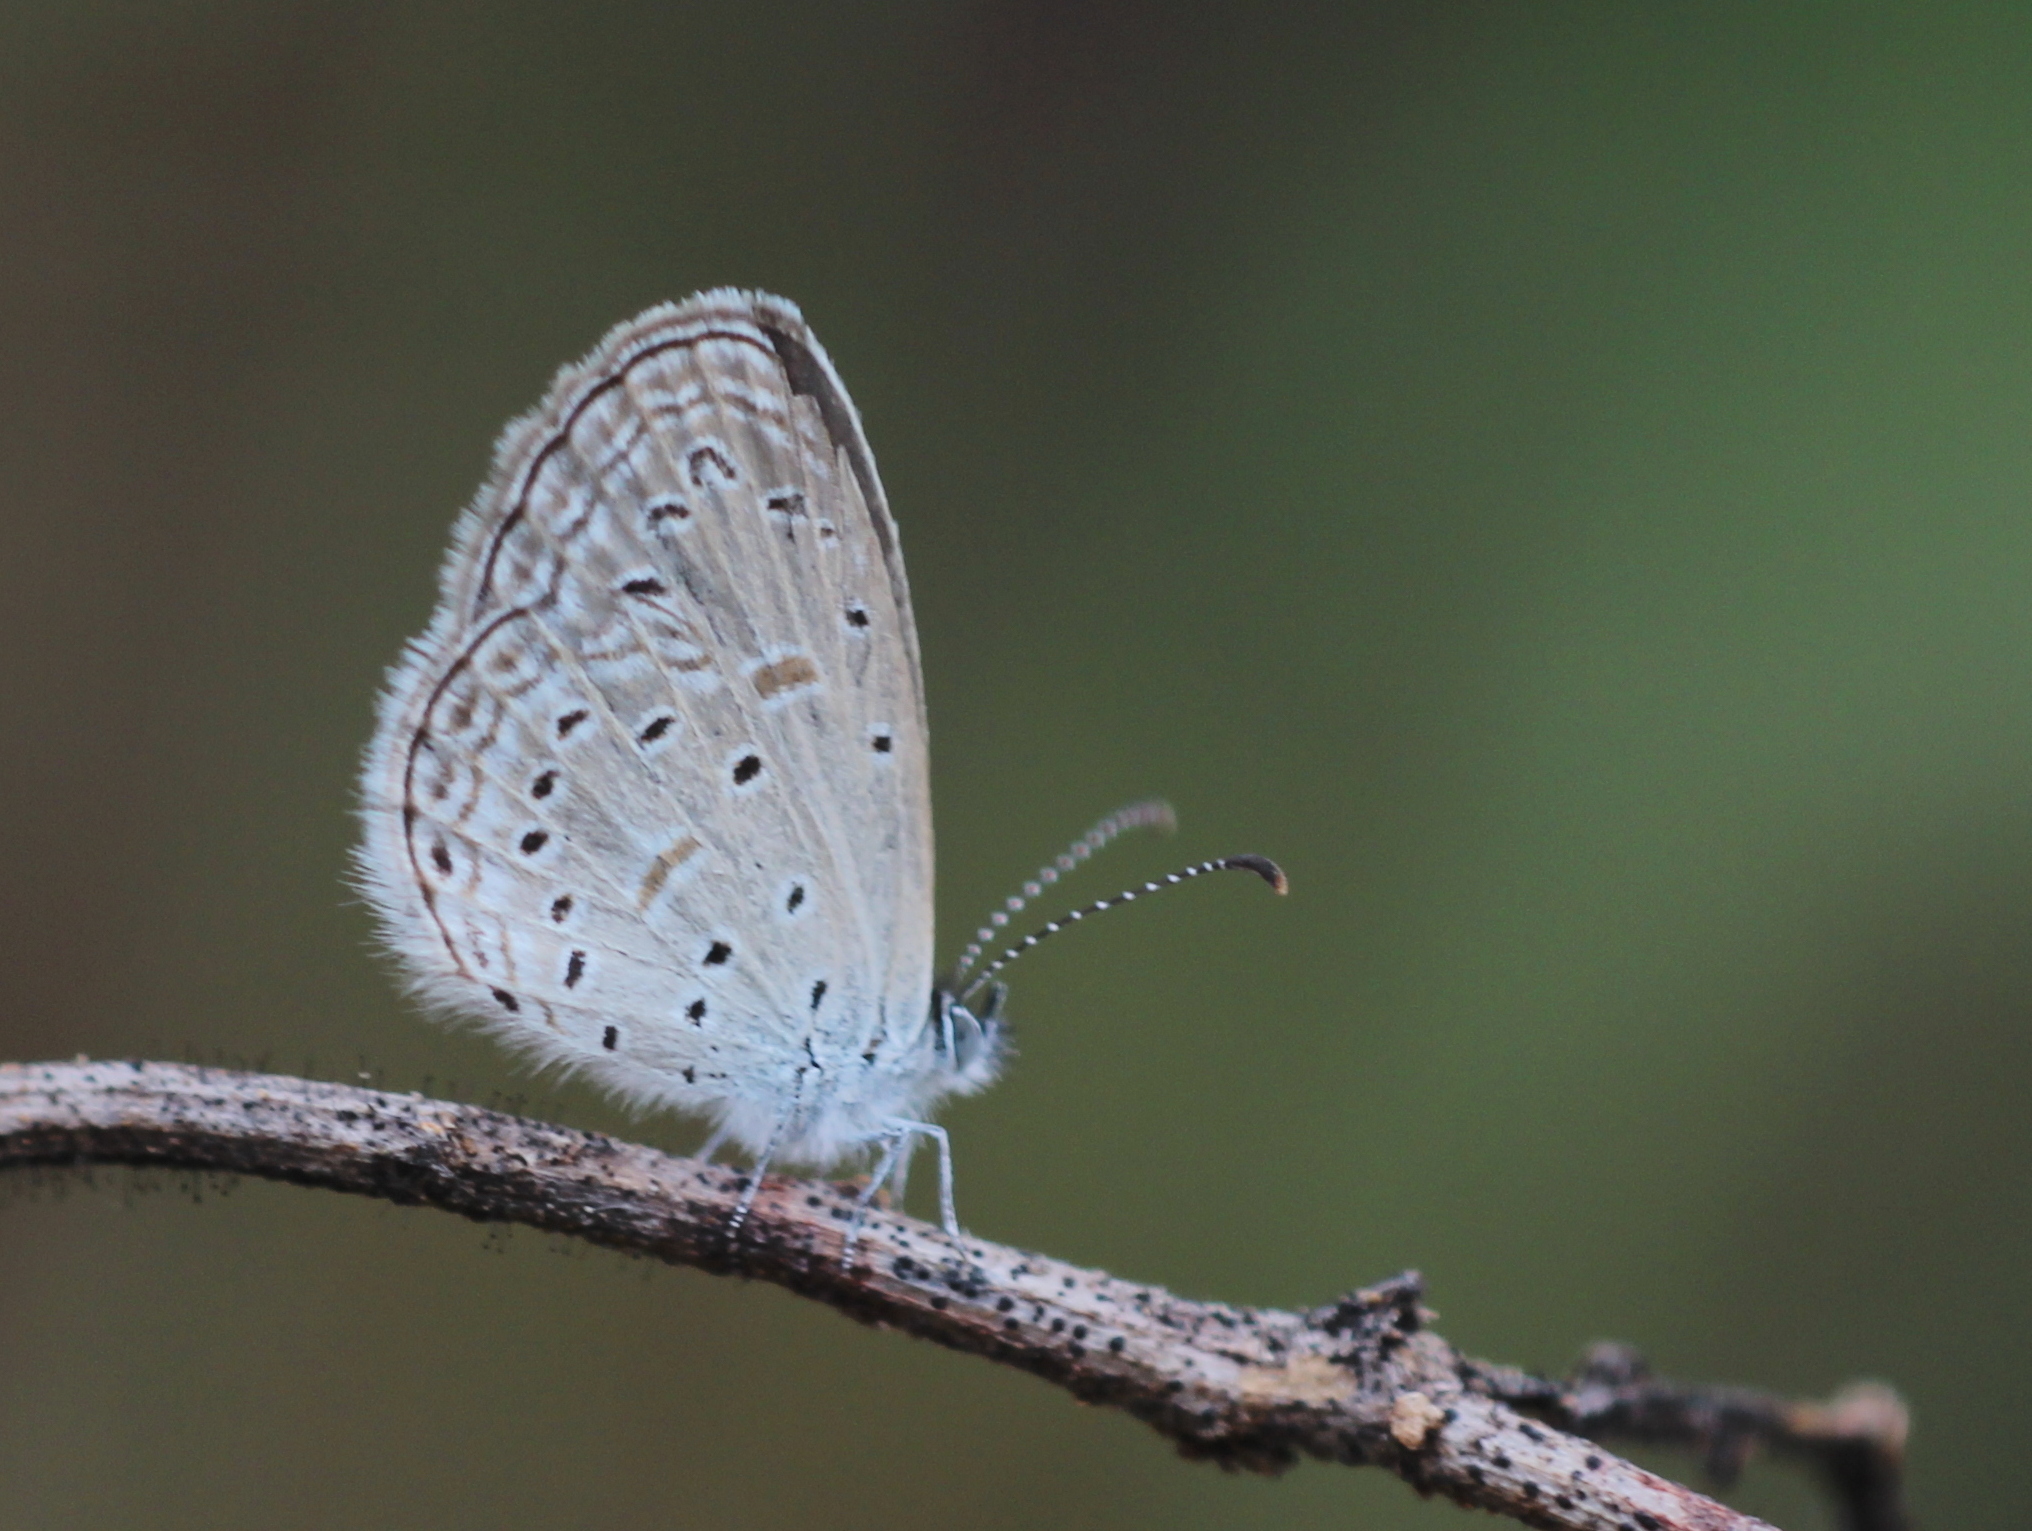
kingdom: Animalia
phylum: Arthropoda
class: Insecta
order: Lepidoptera
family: Lycaenidae
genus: Zizula
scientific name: Zizula hylax
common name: Gaika blue
